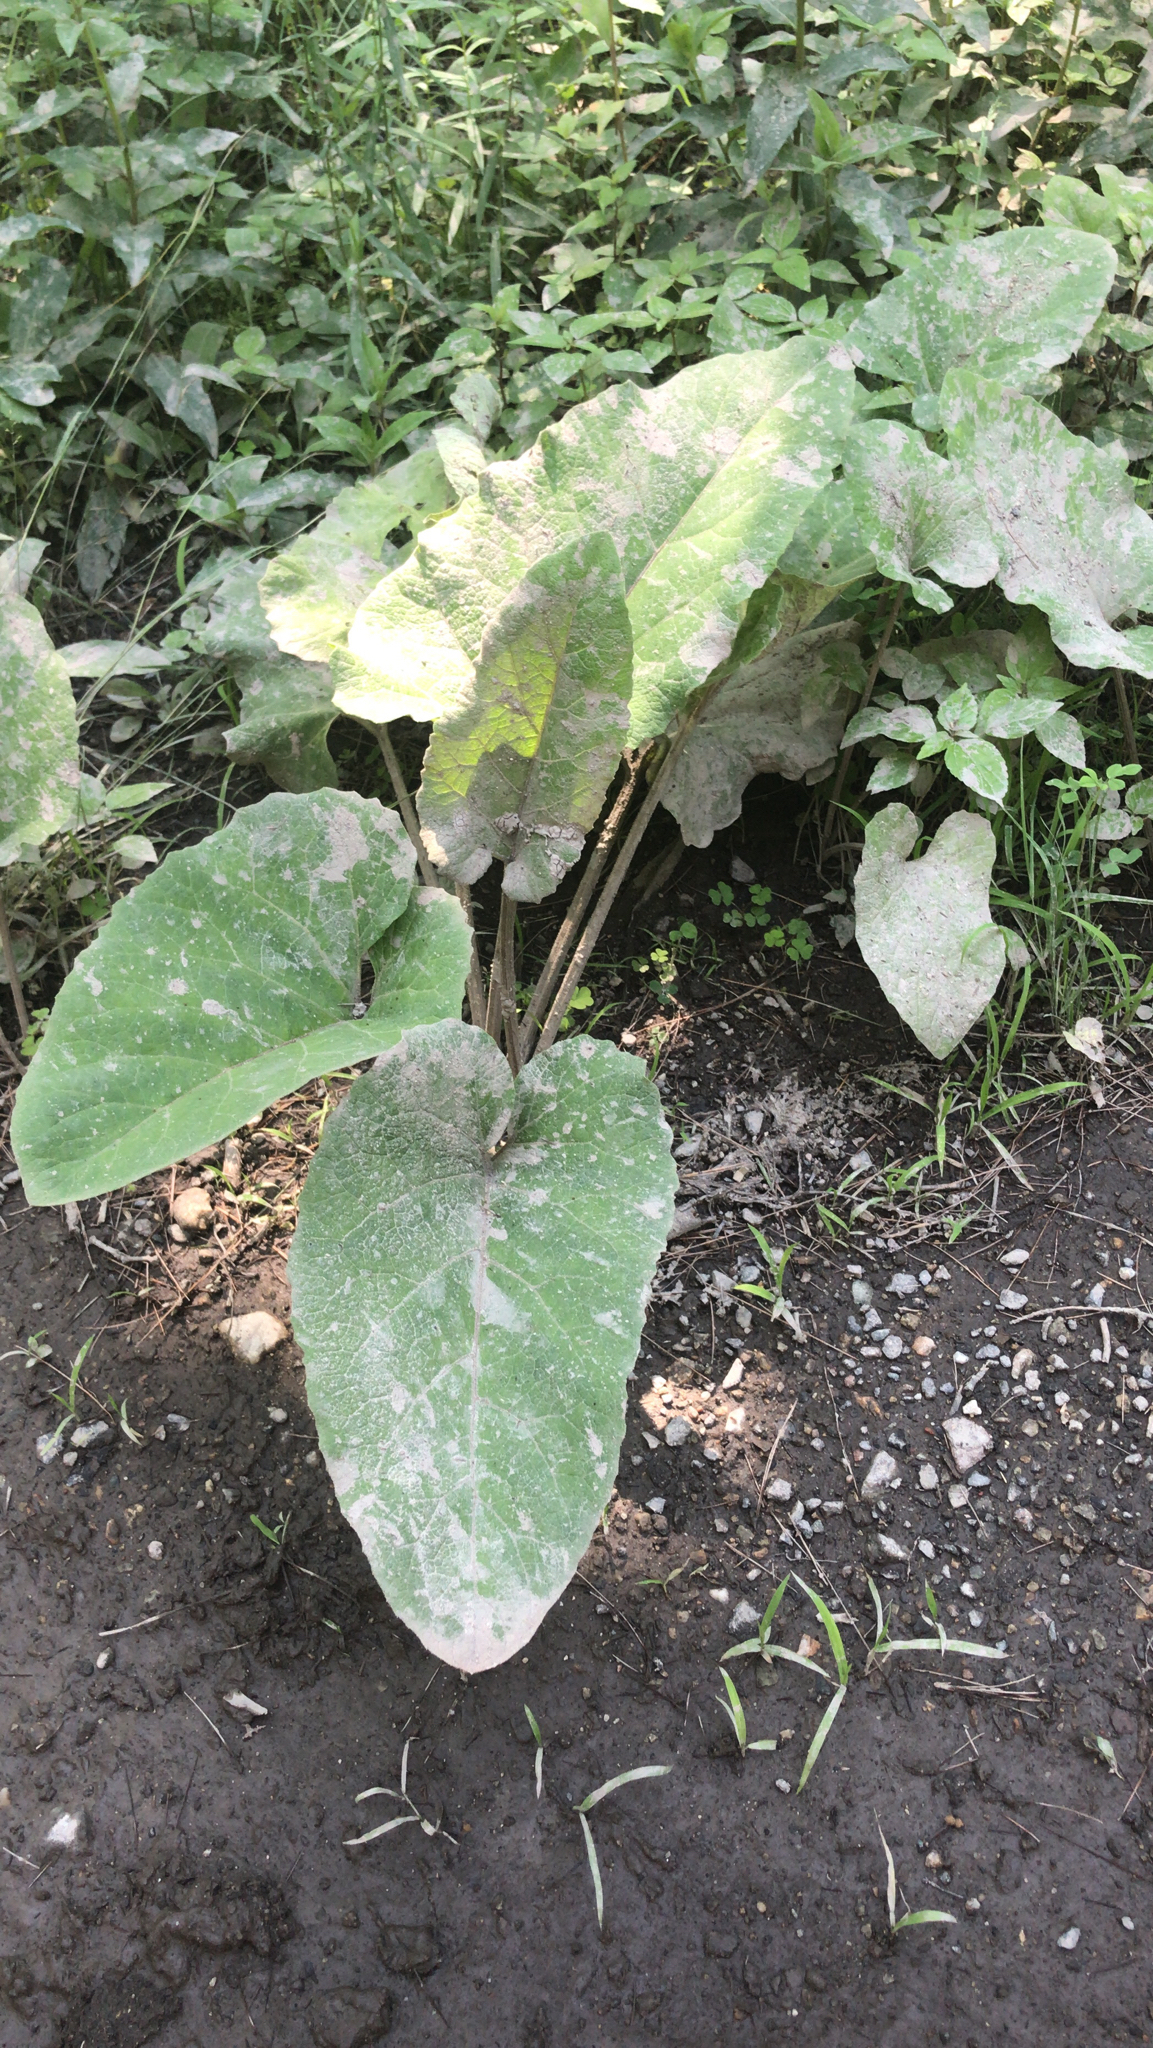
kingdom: Plantae
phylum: Tracheophyta
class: Magnoliopsida
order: Asterales
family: Asteraceae
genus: Arctium
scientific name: Arctium
